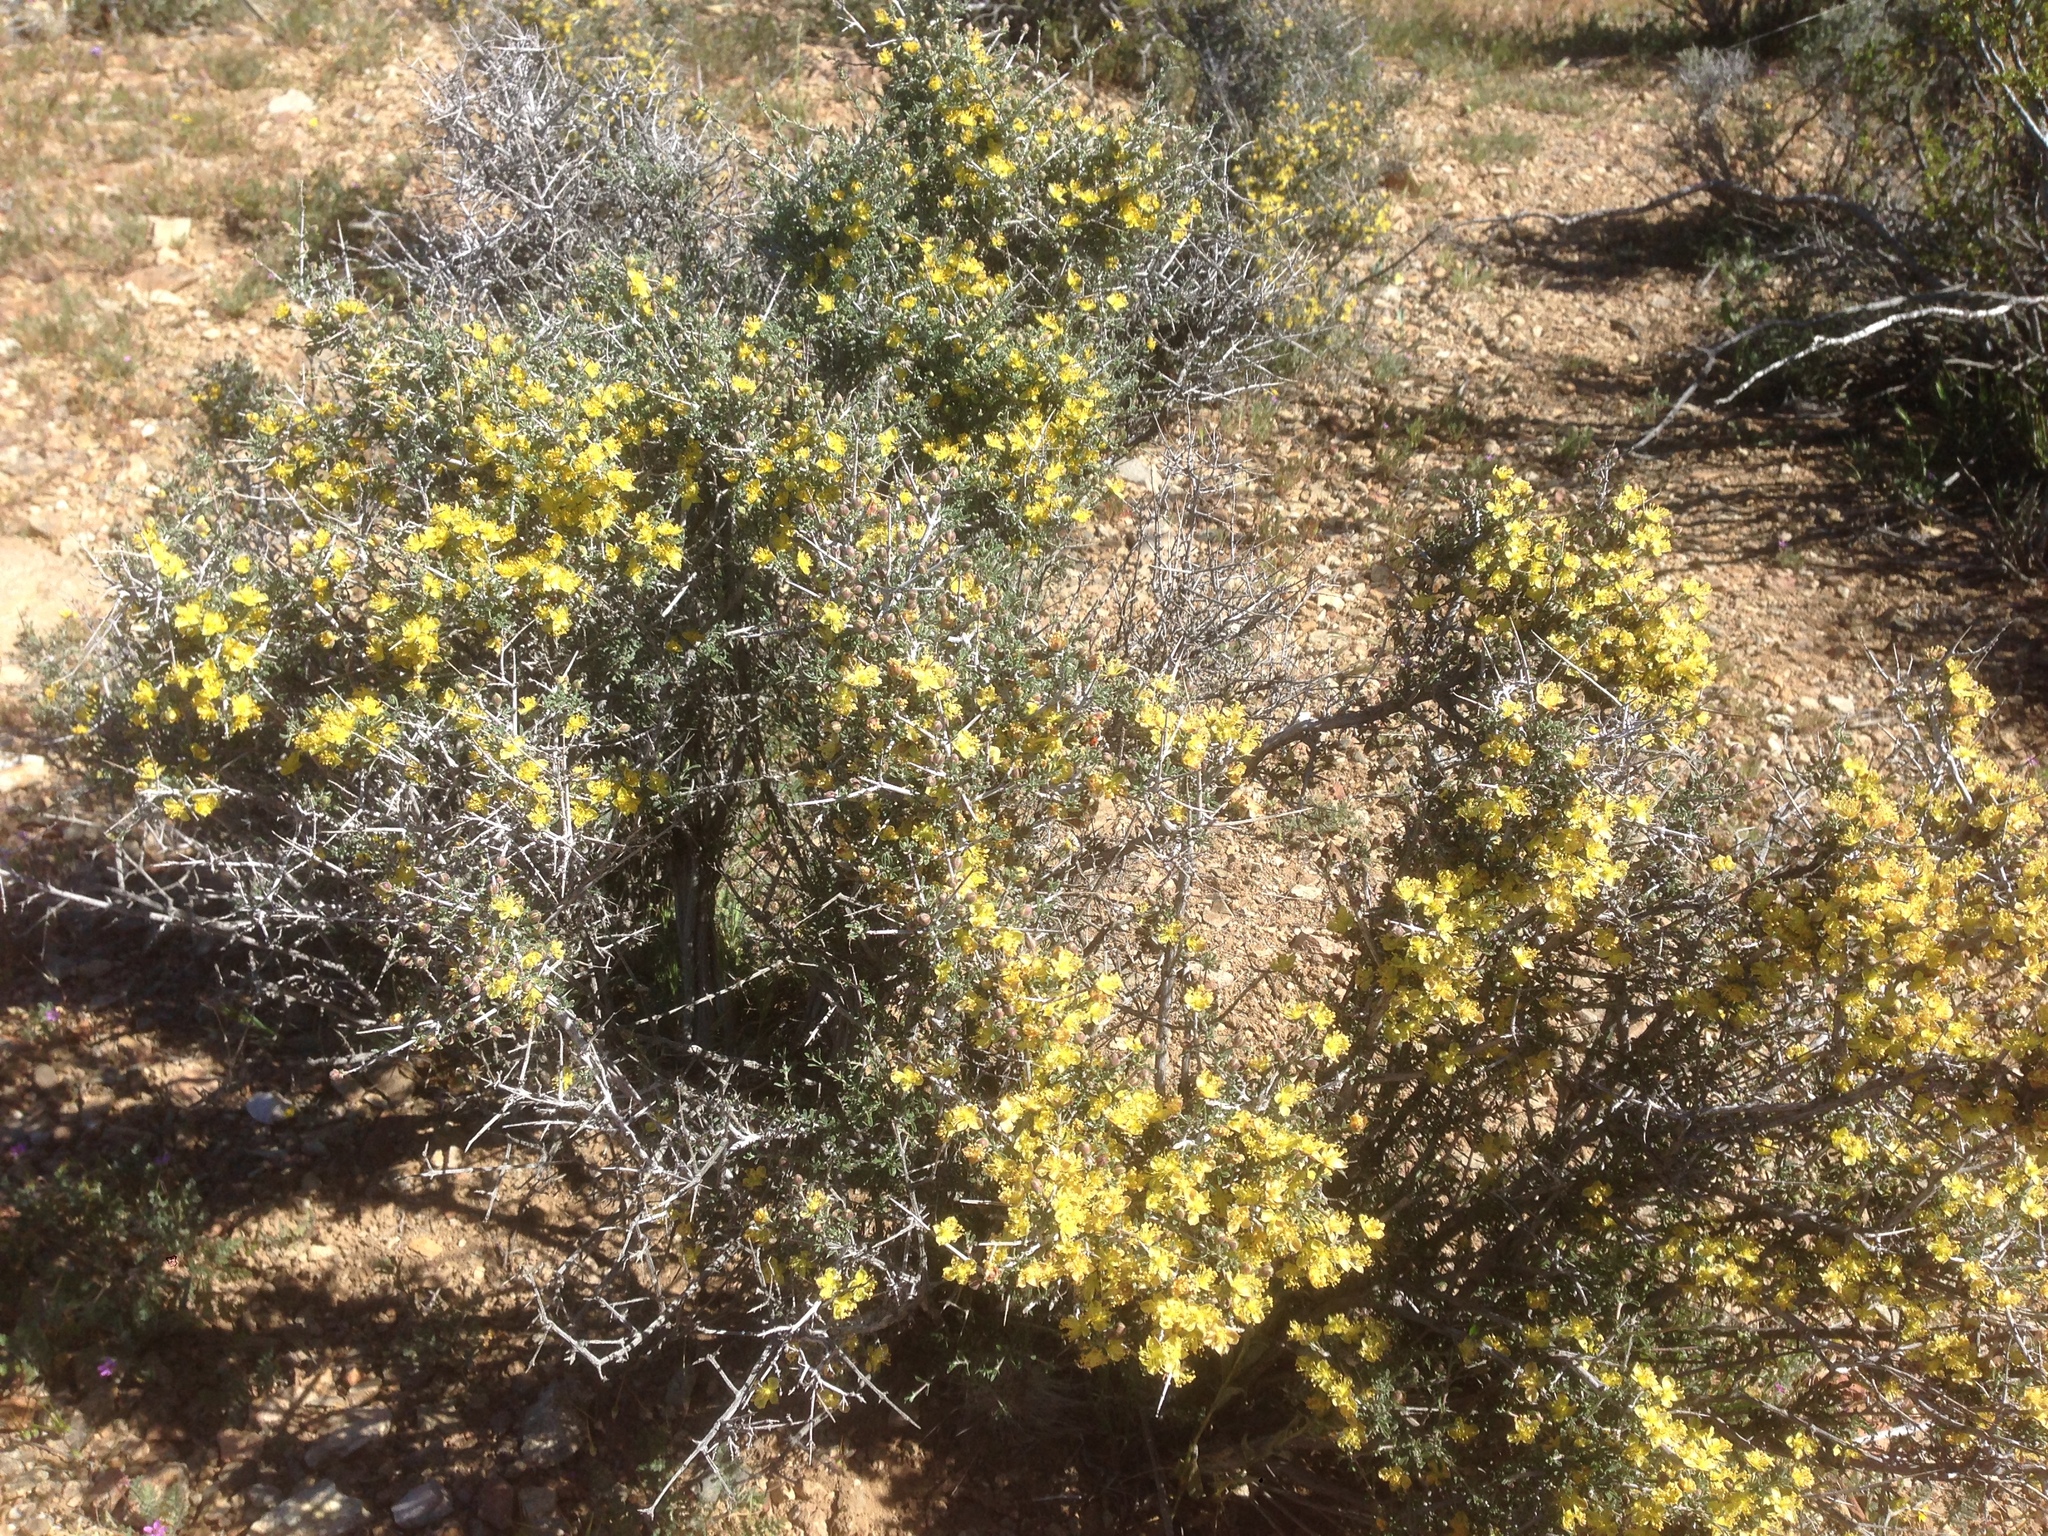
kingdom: Plantae
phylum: Tracheophyta
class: Magnoliopsida
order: Rosales
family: Rosaceae
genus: Coleogyne
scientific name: Coleogyne ramosissima
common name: Blackbrush
